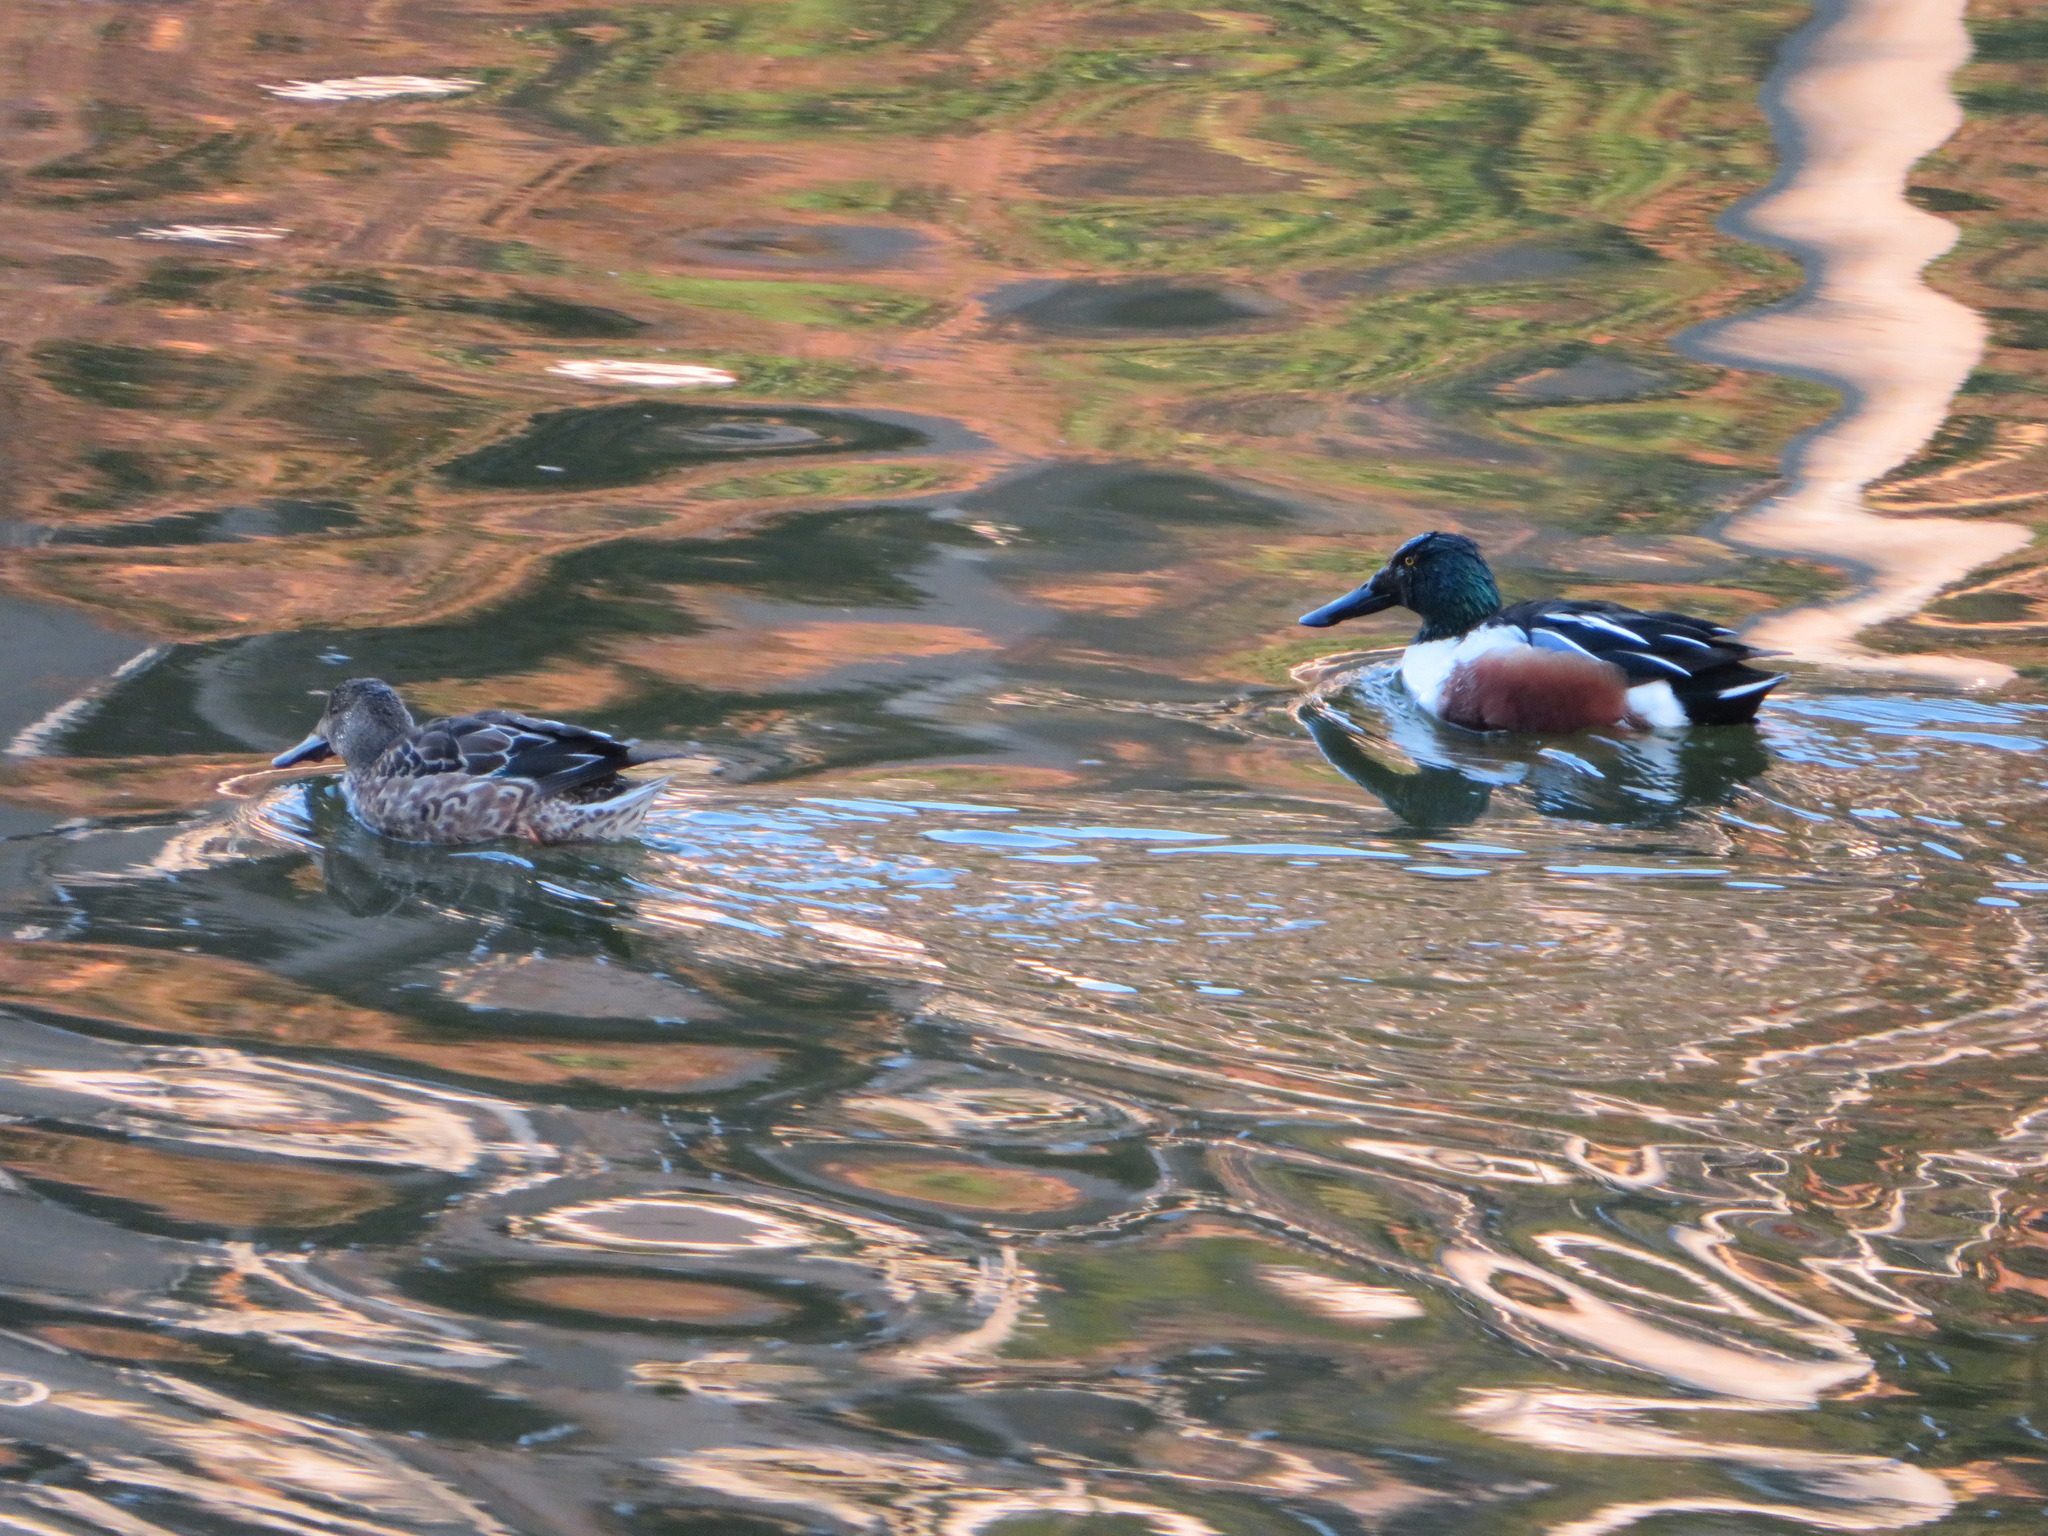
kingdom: Animalia
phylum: Chordata
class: Aves
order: Anseriformes
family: Anatidae
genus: Spatula
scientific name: Spatula clypeata
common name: Northern shoveler
